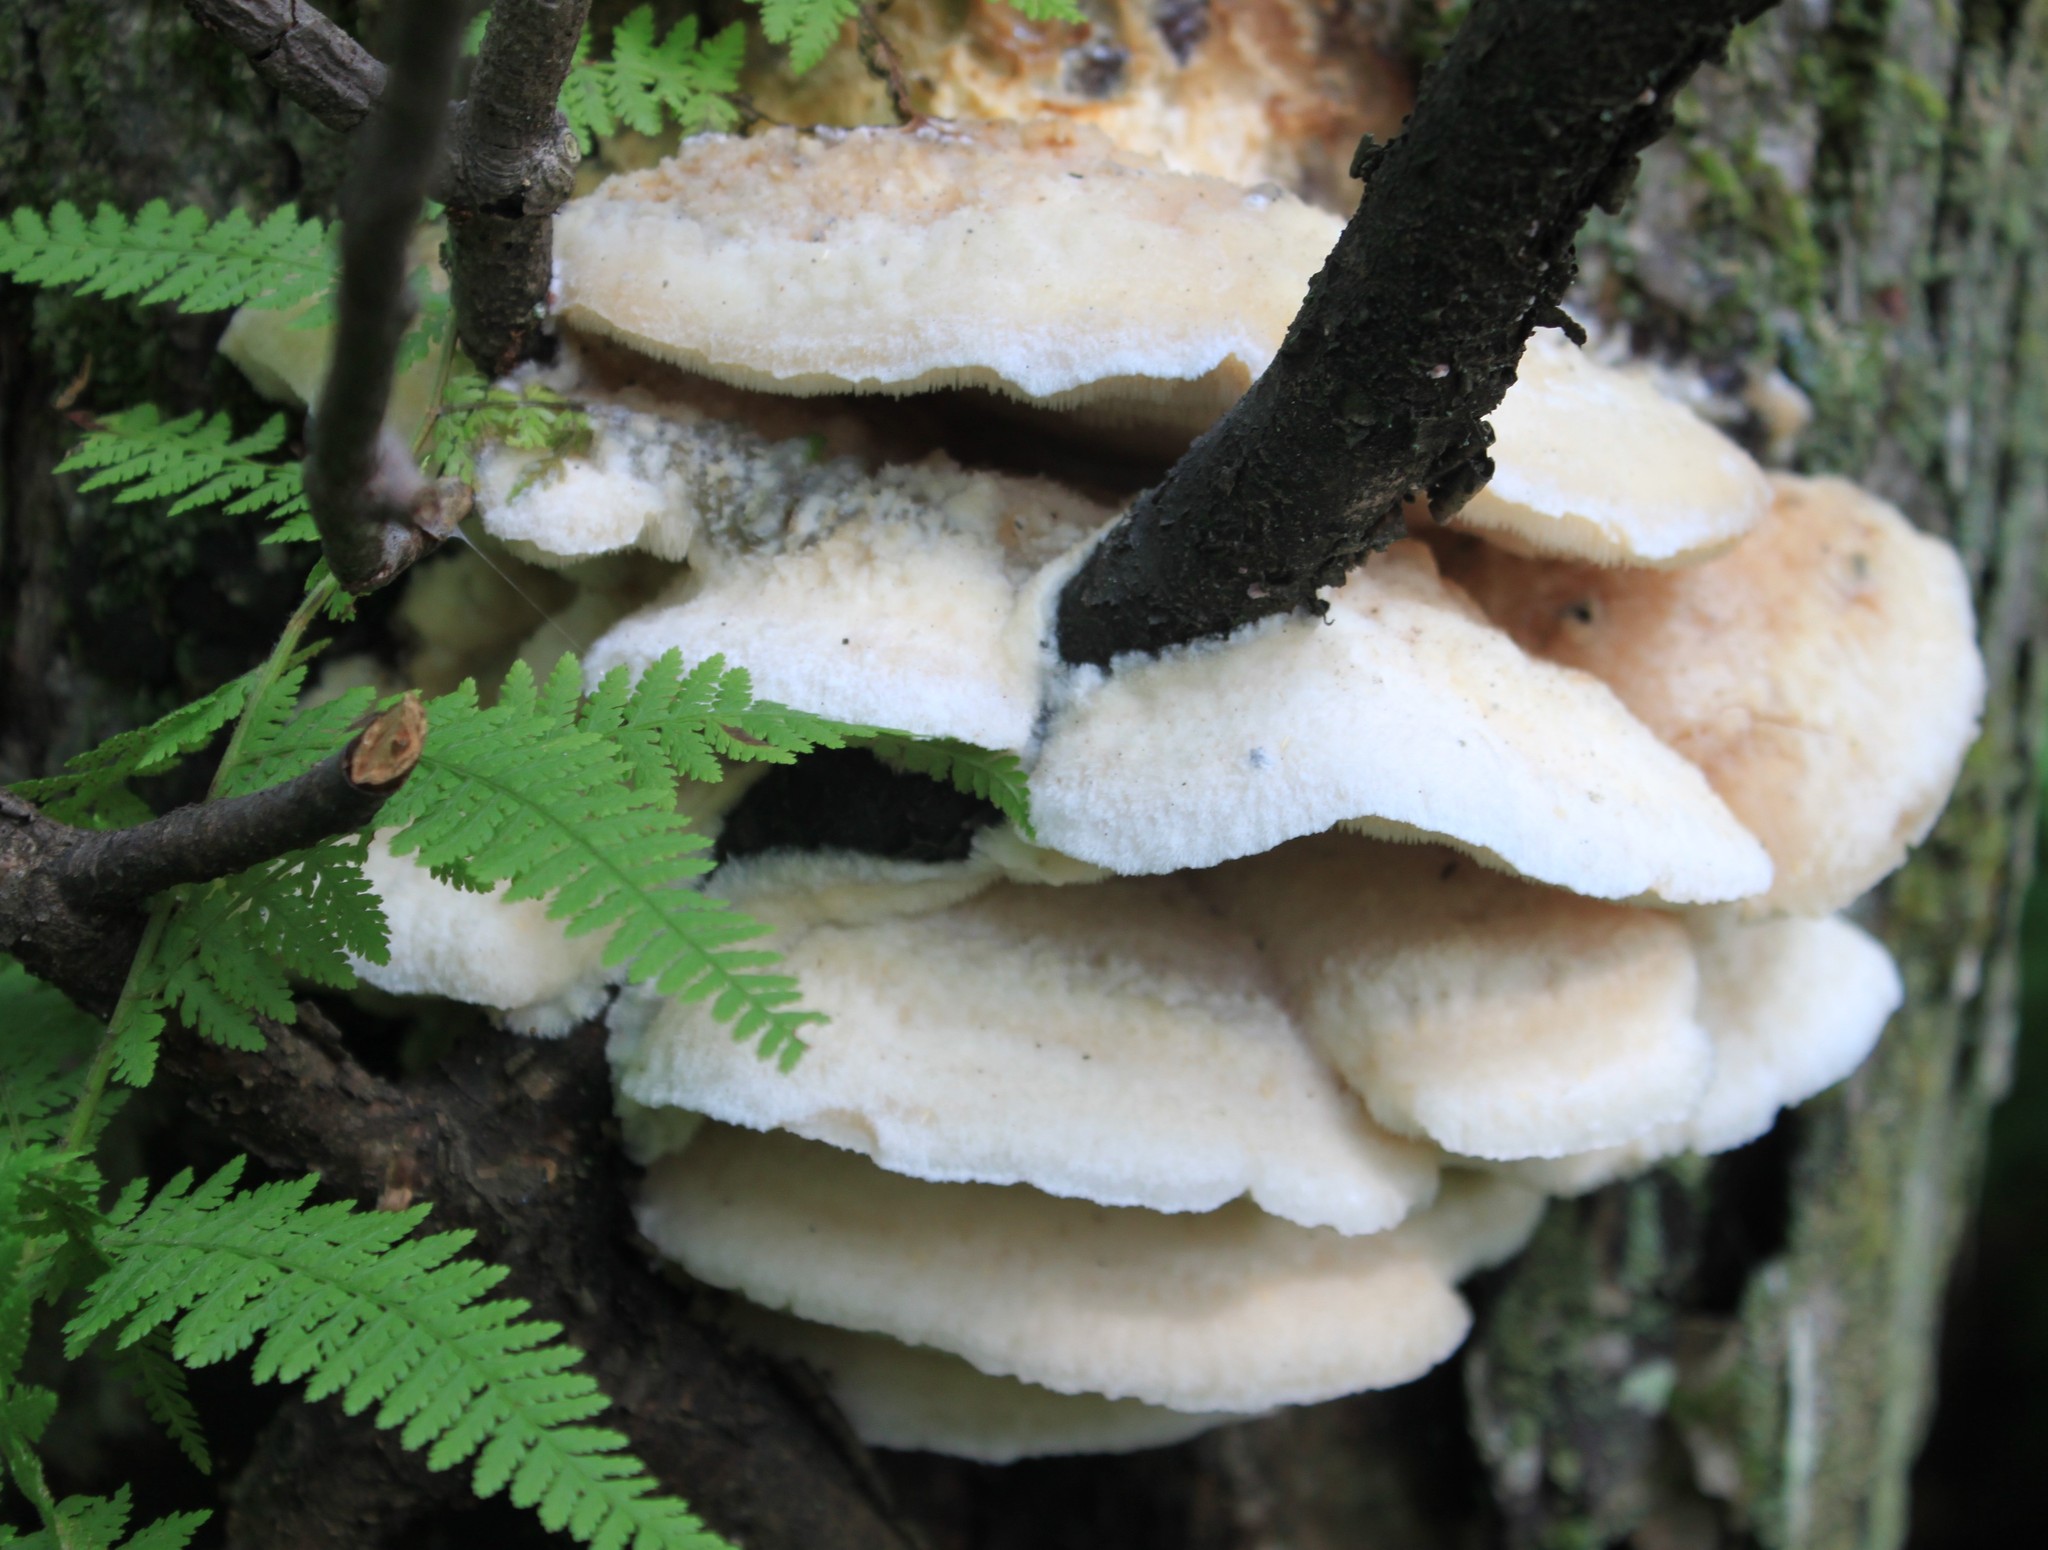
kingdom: Fungi
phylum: Basidiomycota
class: Agaricomycetes
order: Polyporales
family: Meruliaceae
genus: Climacodon
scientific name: Climacodon septentrionalis
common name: Northern tooth
